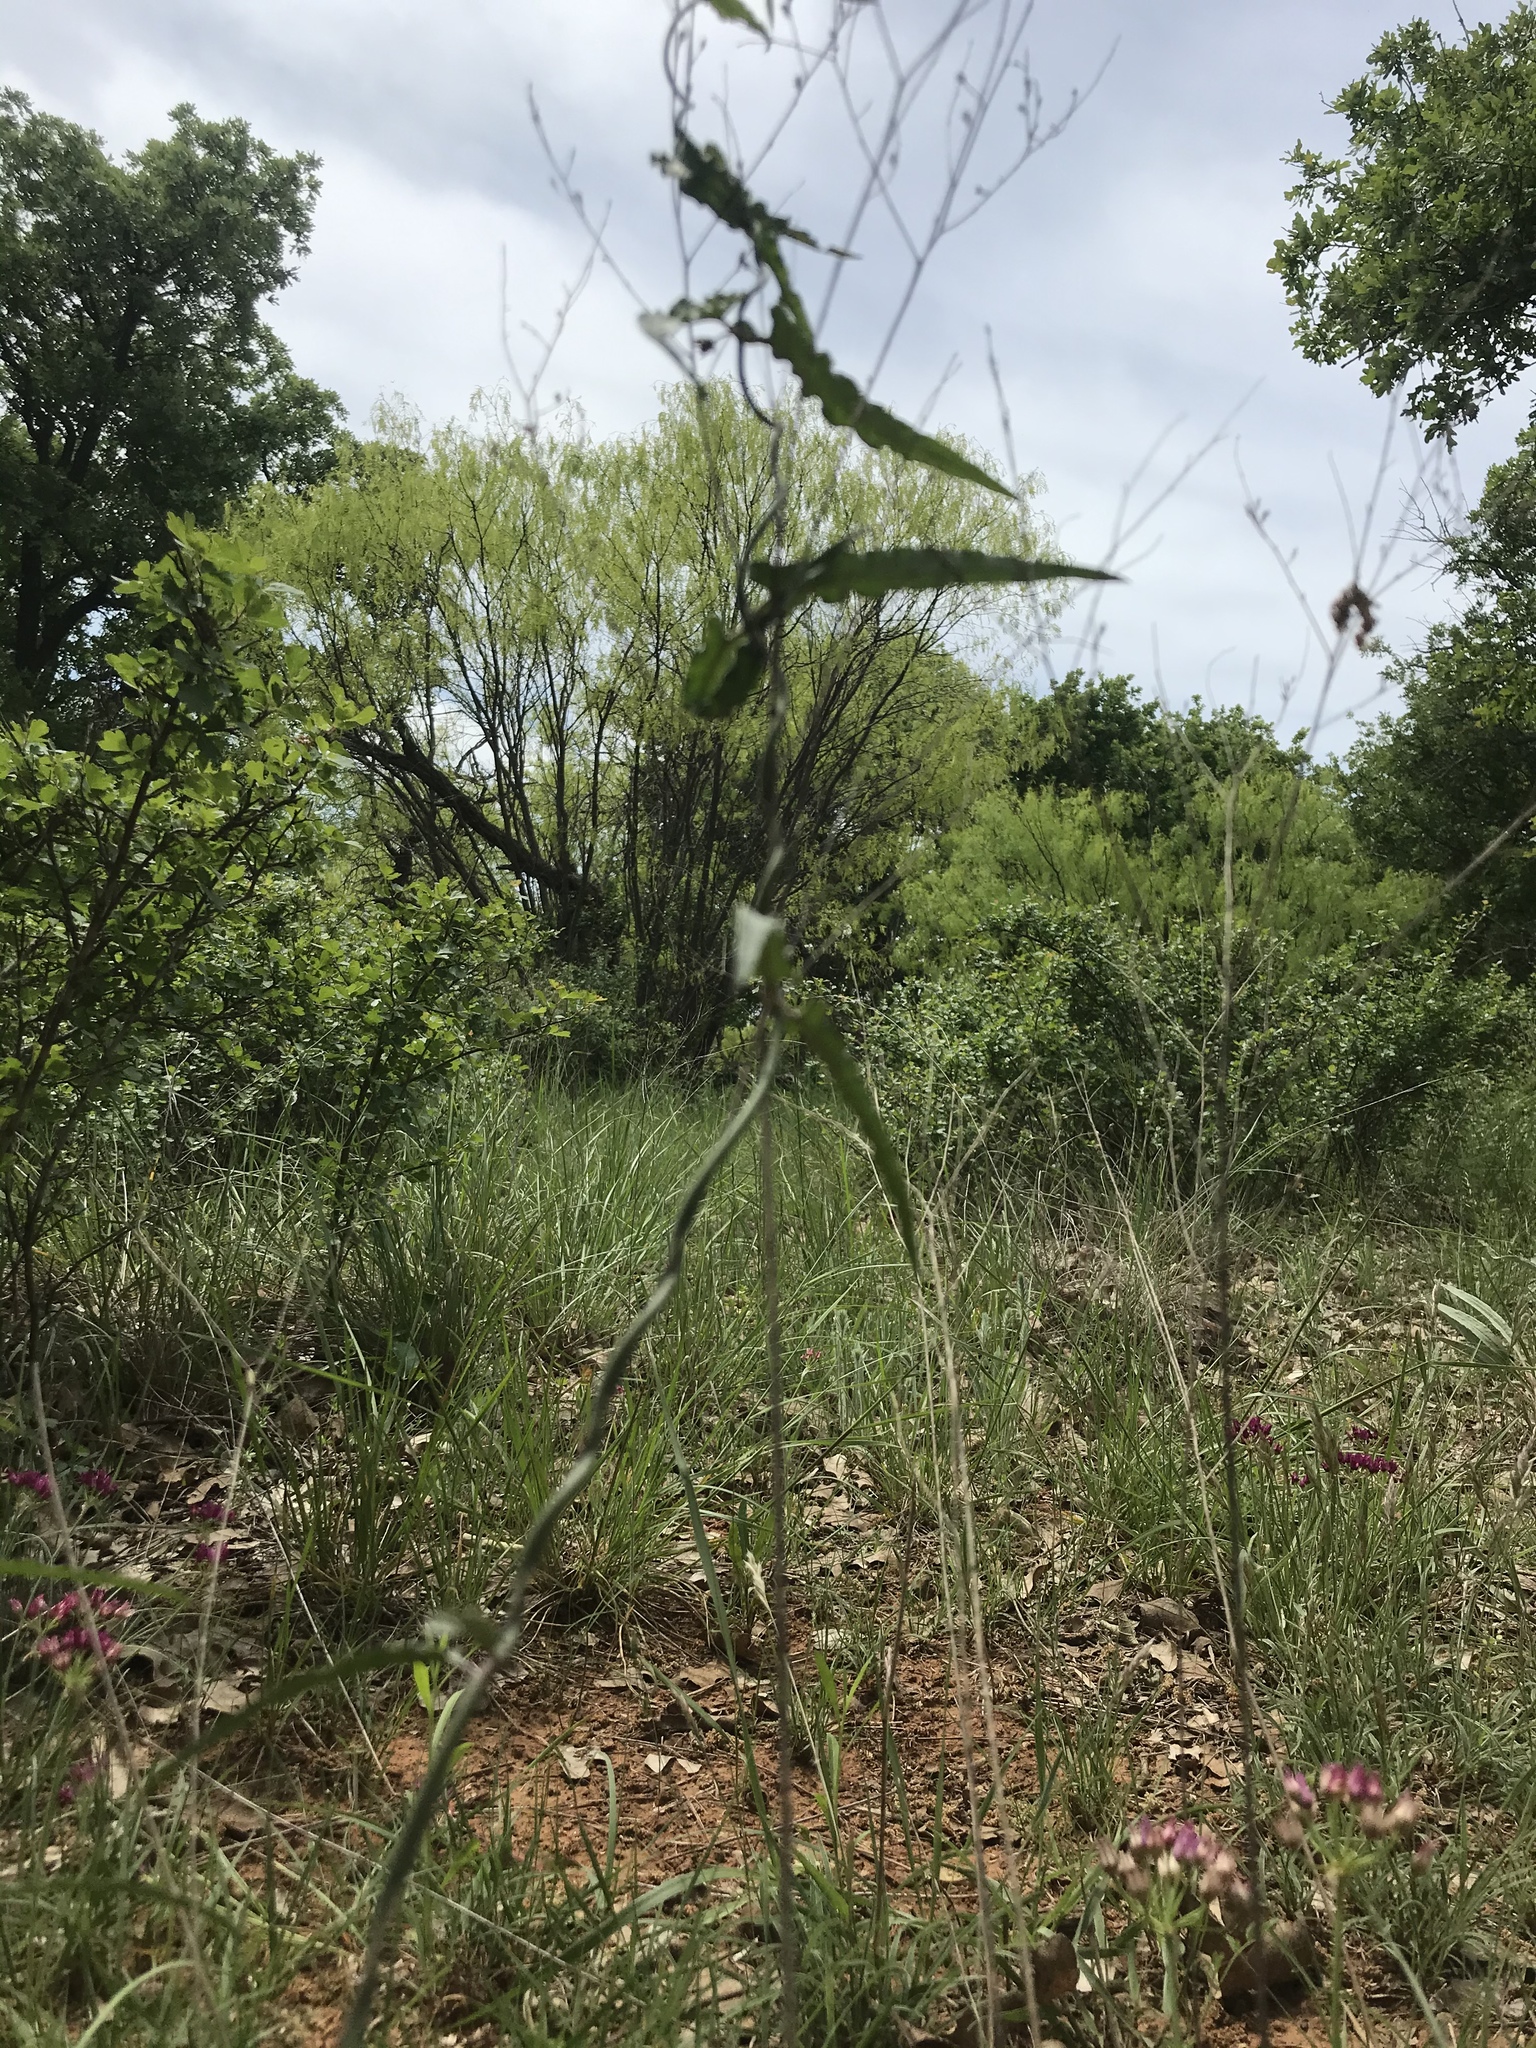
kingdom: Plantae
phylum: Tracheophyta
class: Magnoliopsida
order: Gentianales
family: Apocynaceae
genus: Funastrum
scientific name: Funastrum crispum
